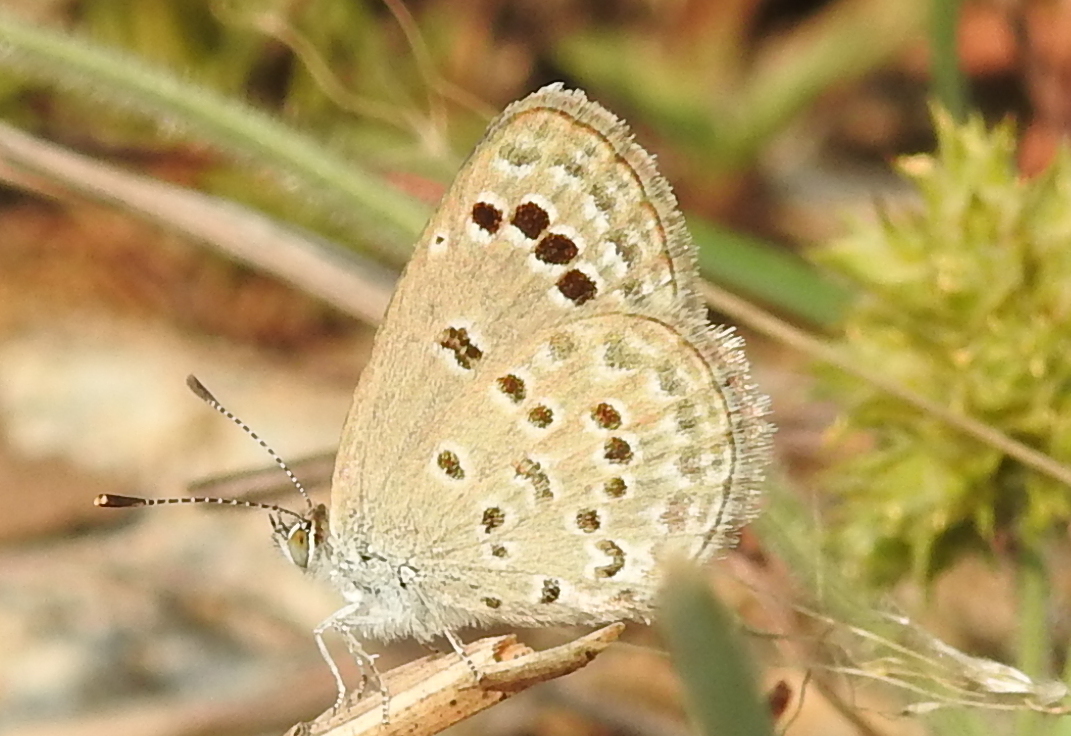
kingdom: Animalia
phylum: Arthropoda
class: Insecta
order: Lepidoptera
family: Lycaenidae
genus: Zizina
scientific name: Zizina otis
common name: Lesser grass blue
